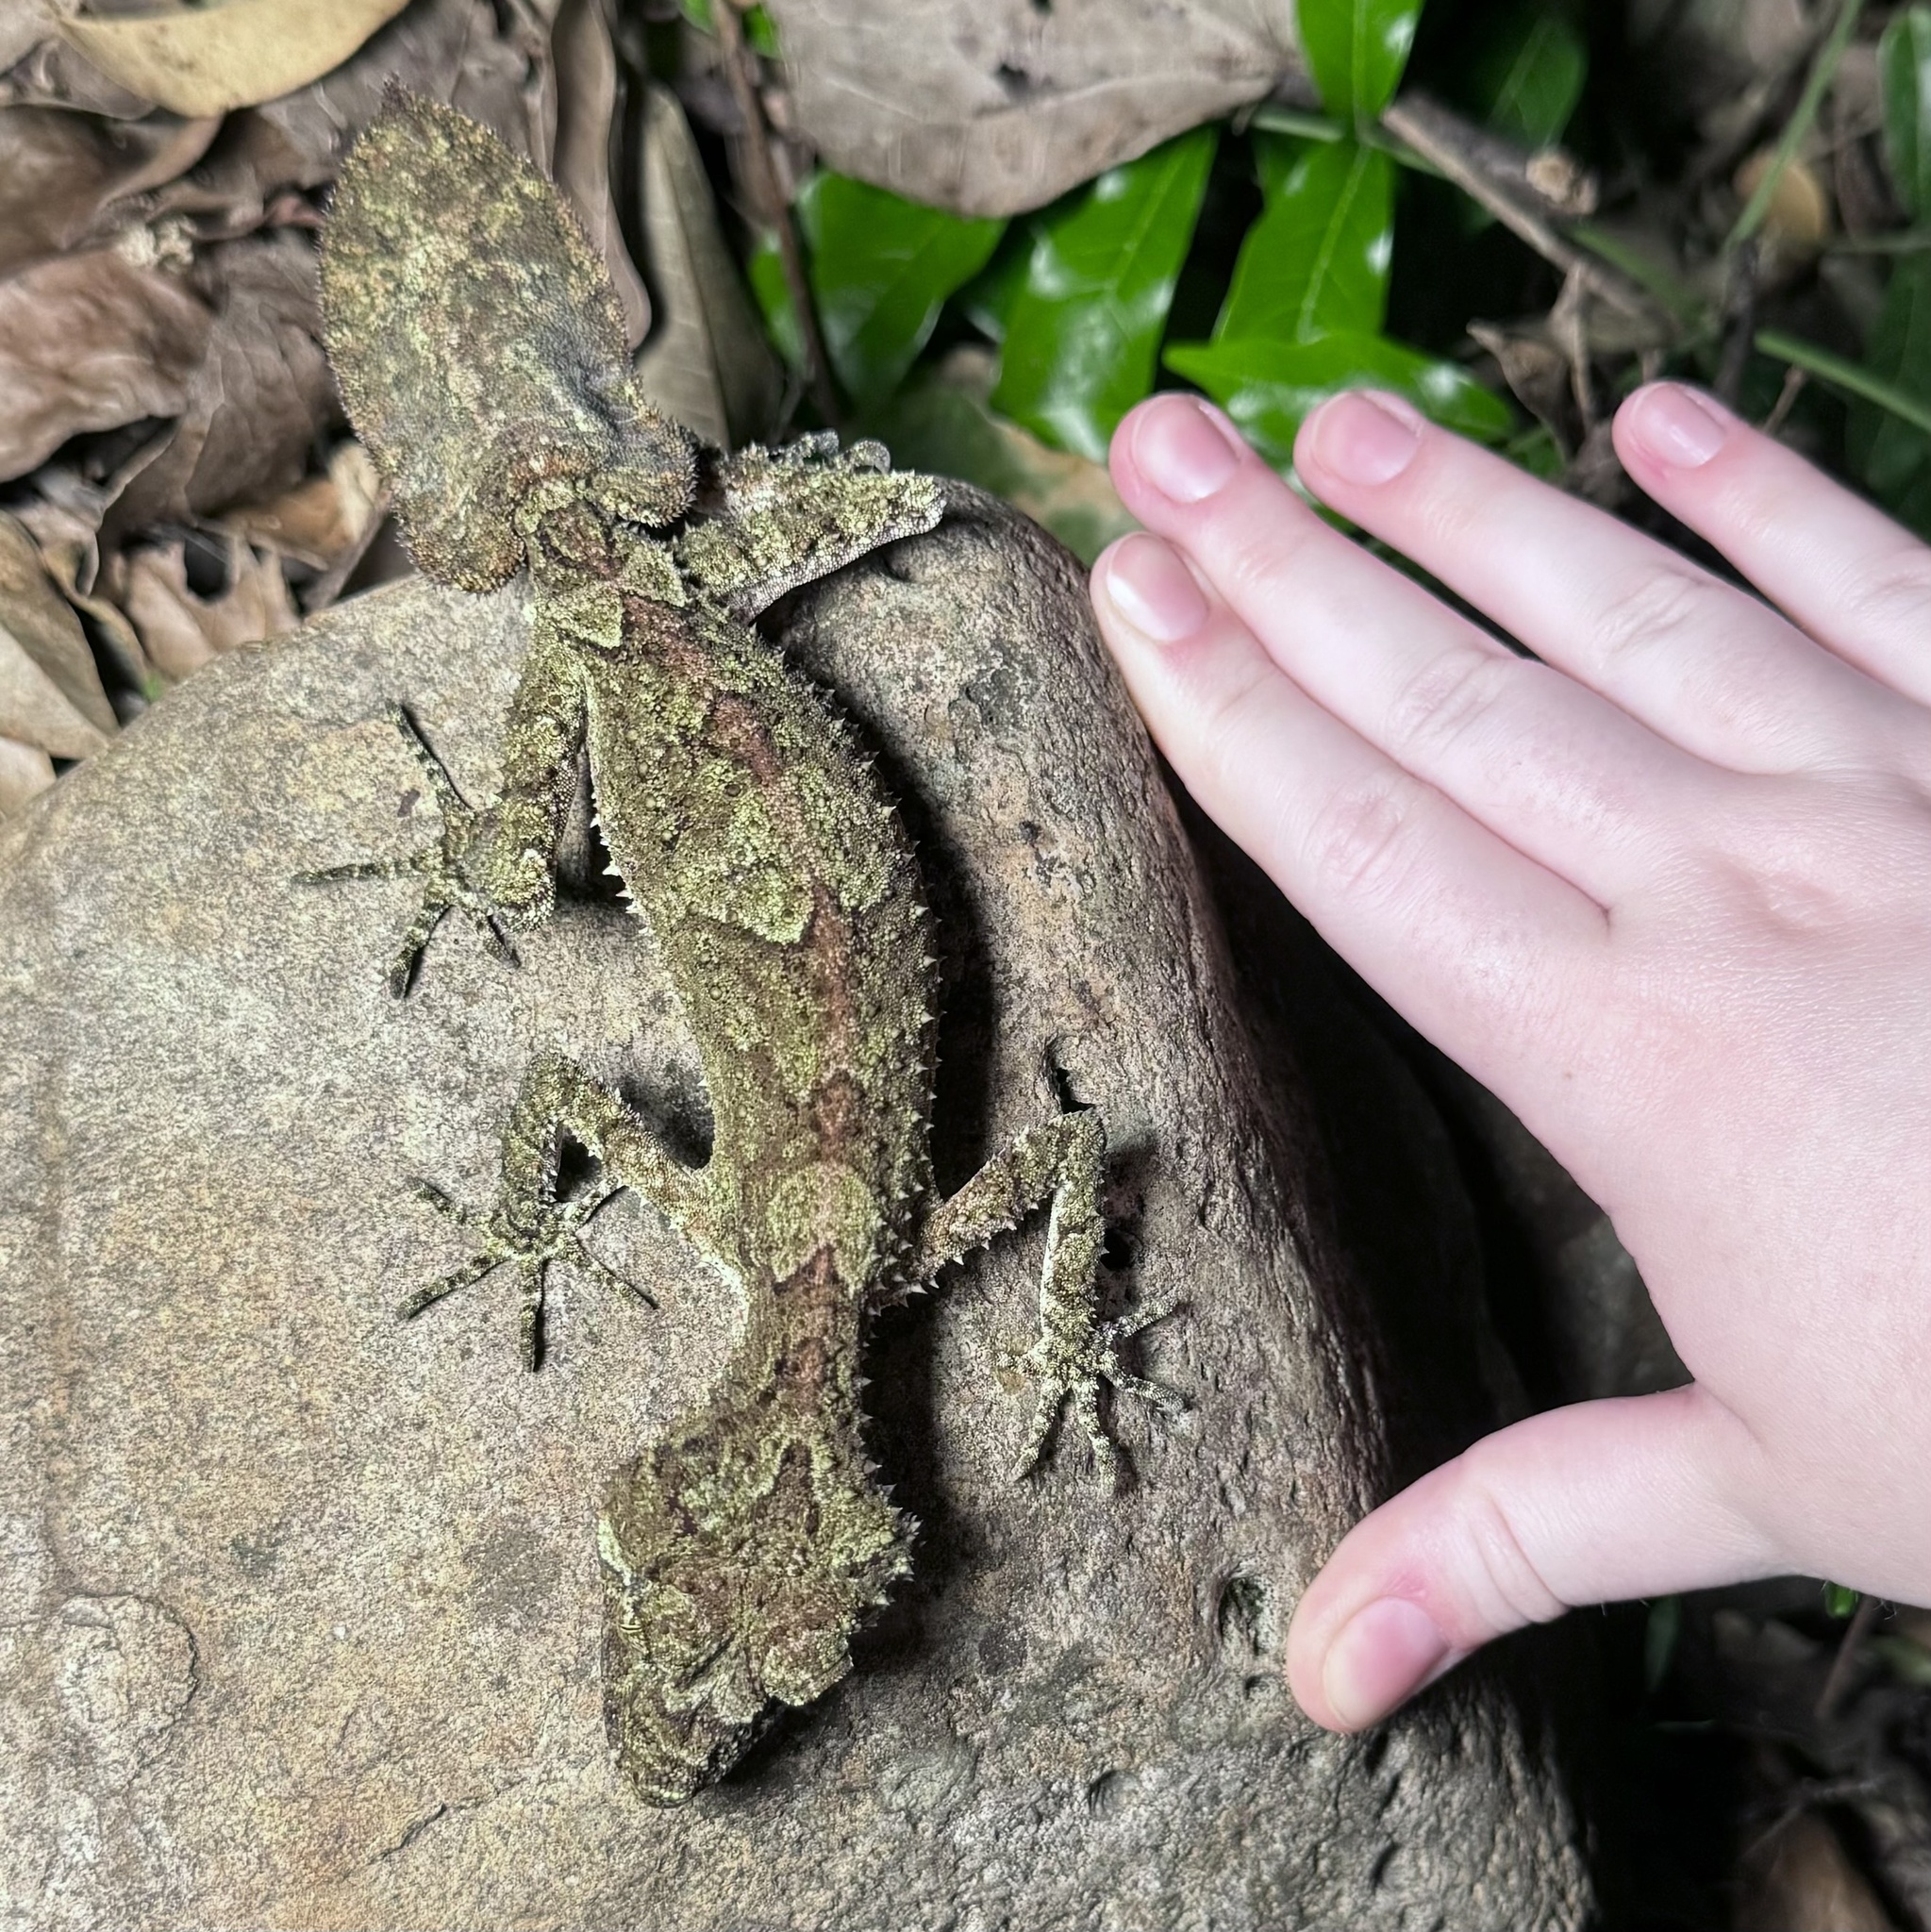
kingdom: Animalia
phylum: Chordata
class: Squamata
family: Carphodactylidae
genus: Saltuarius
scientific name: Saltuarius swaini
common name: Southern leaf-tailed gecko
